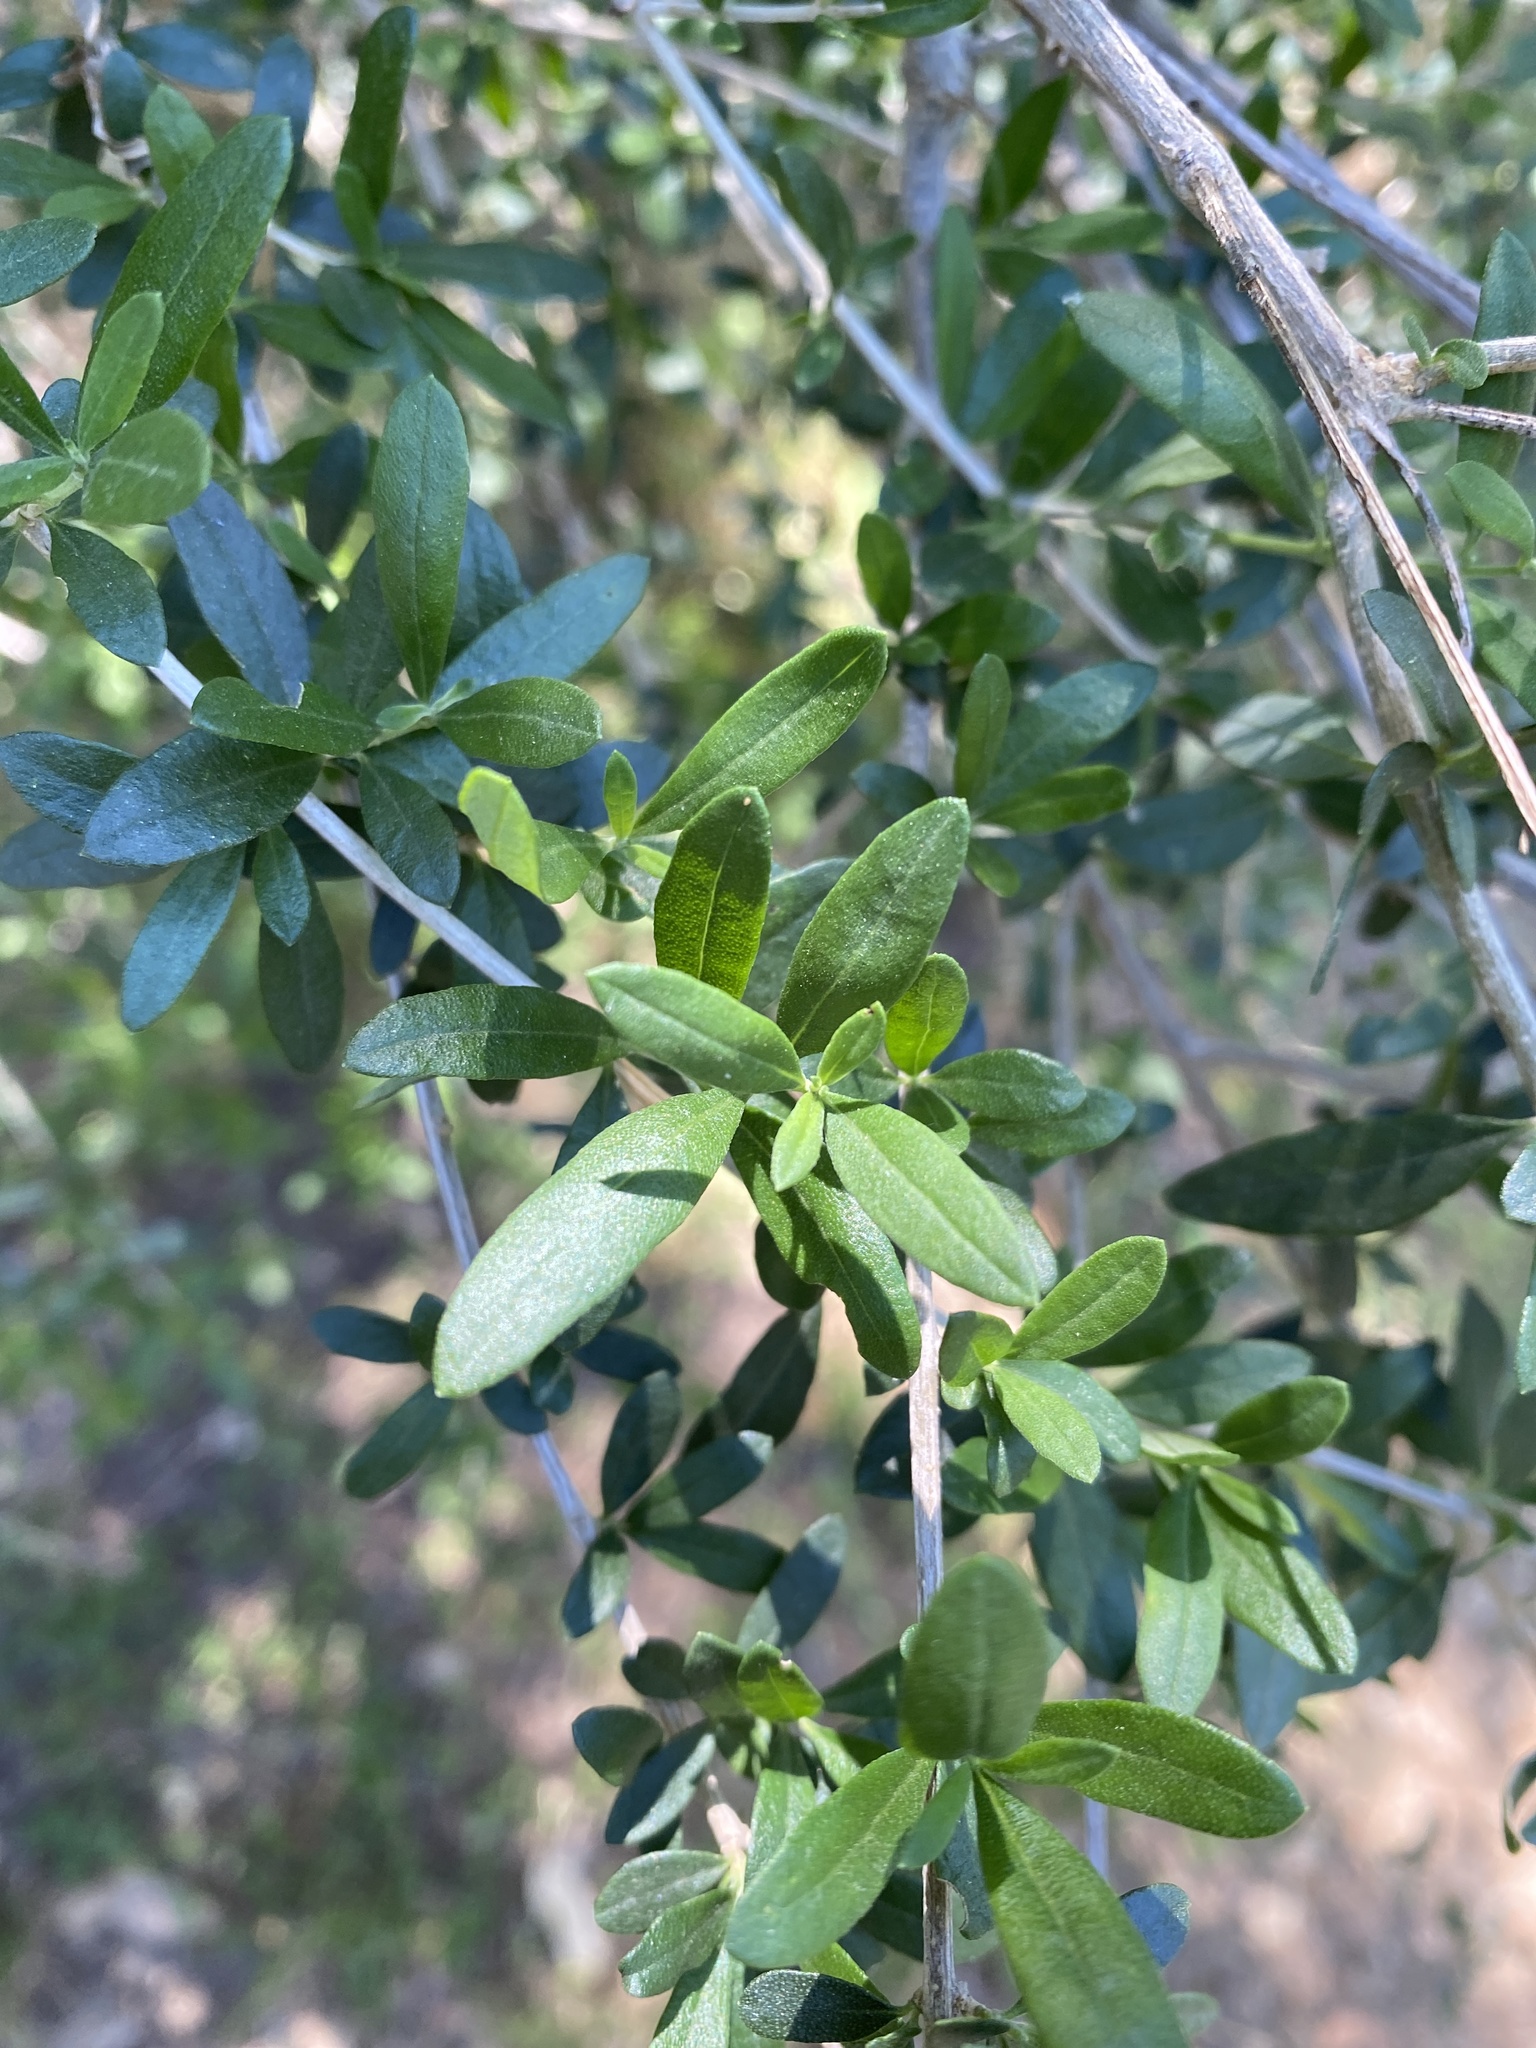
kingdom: Plantae
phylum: Tracheophyta
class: Magnoliopsida
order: Lamiales
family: Verbenaceae
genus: Aloysia
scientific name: Aloysia gratissima
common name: Common bee-brush
